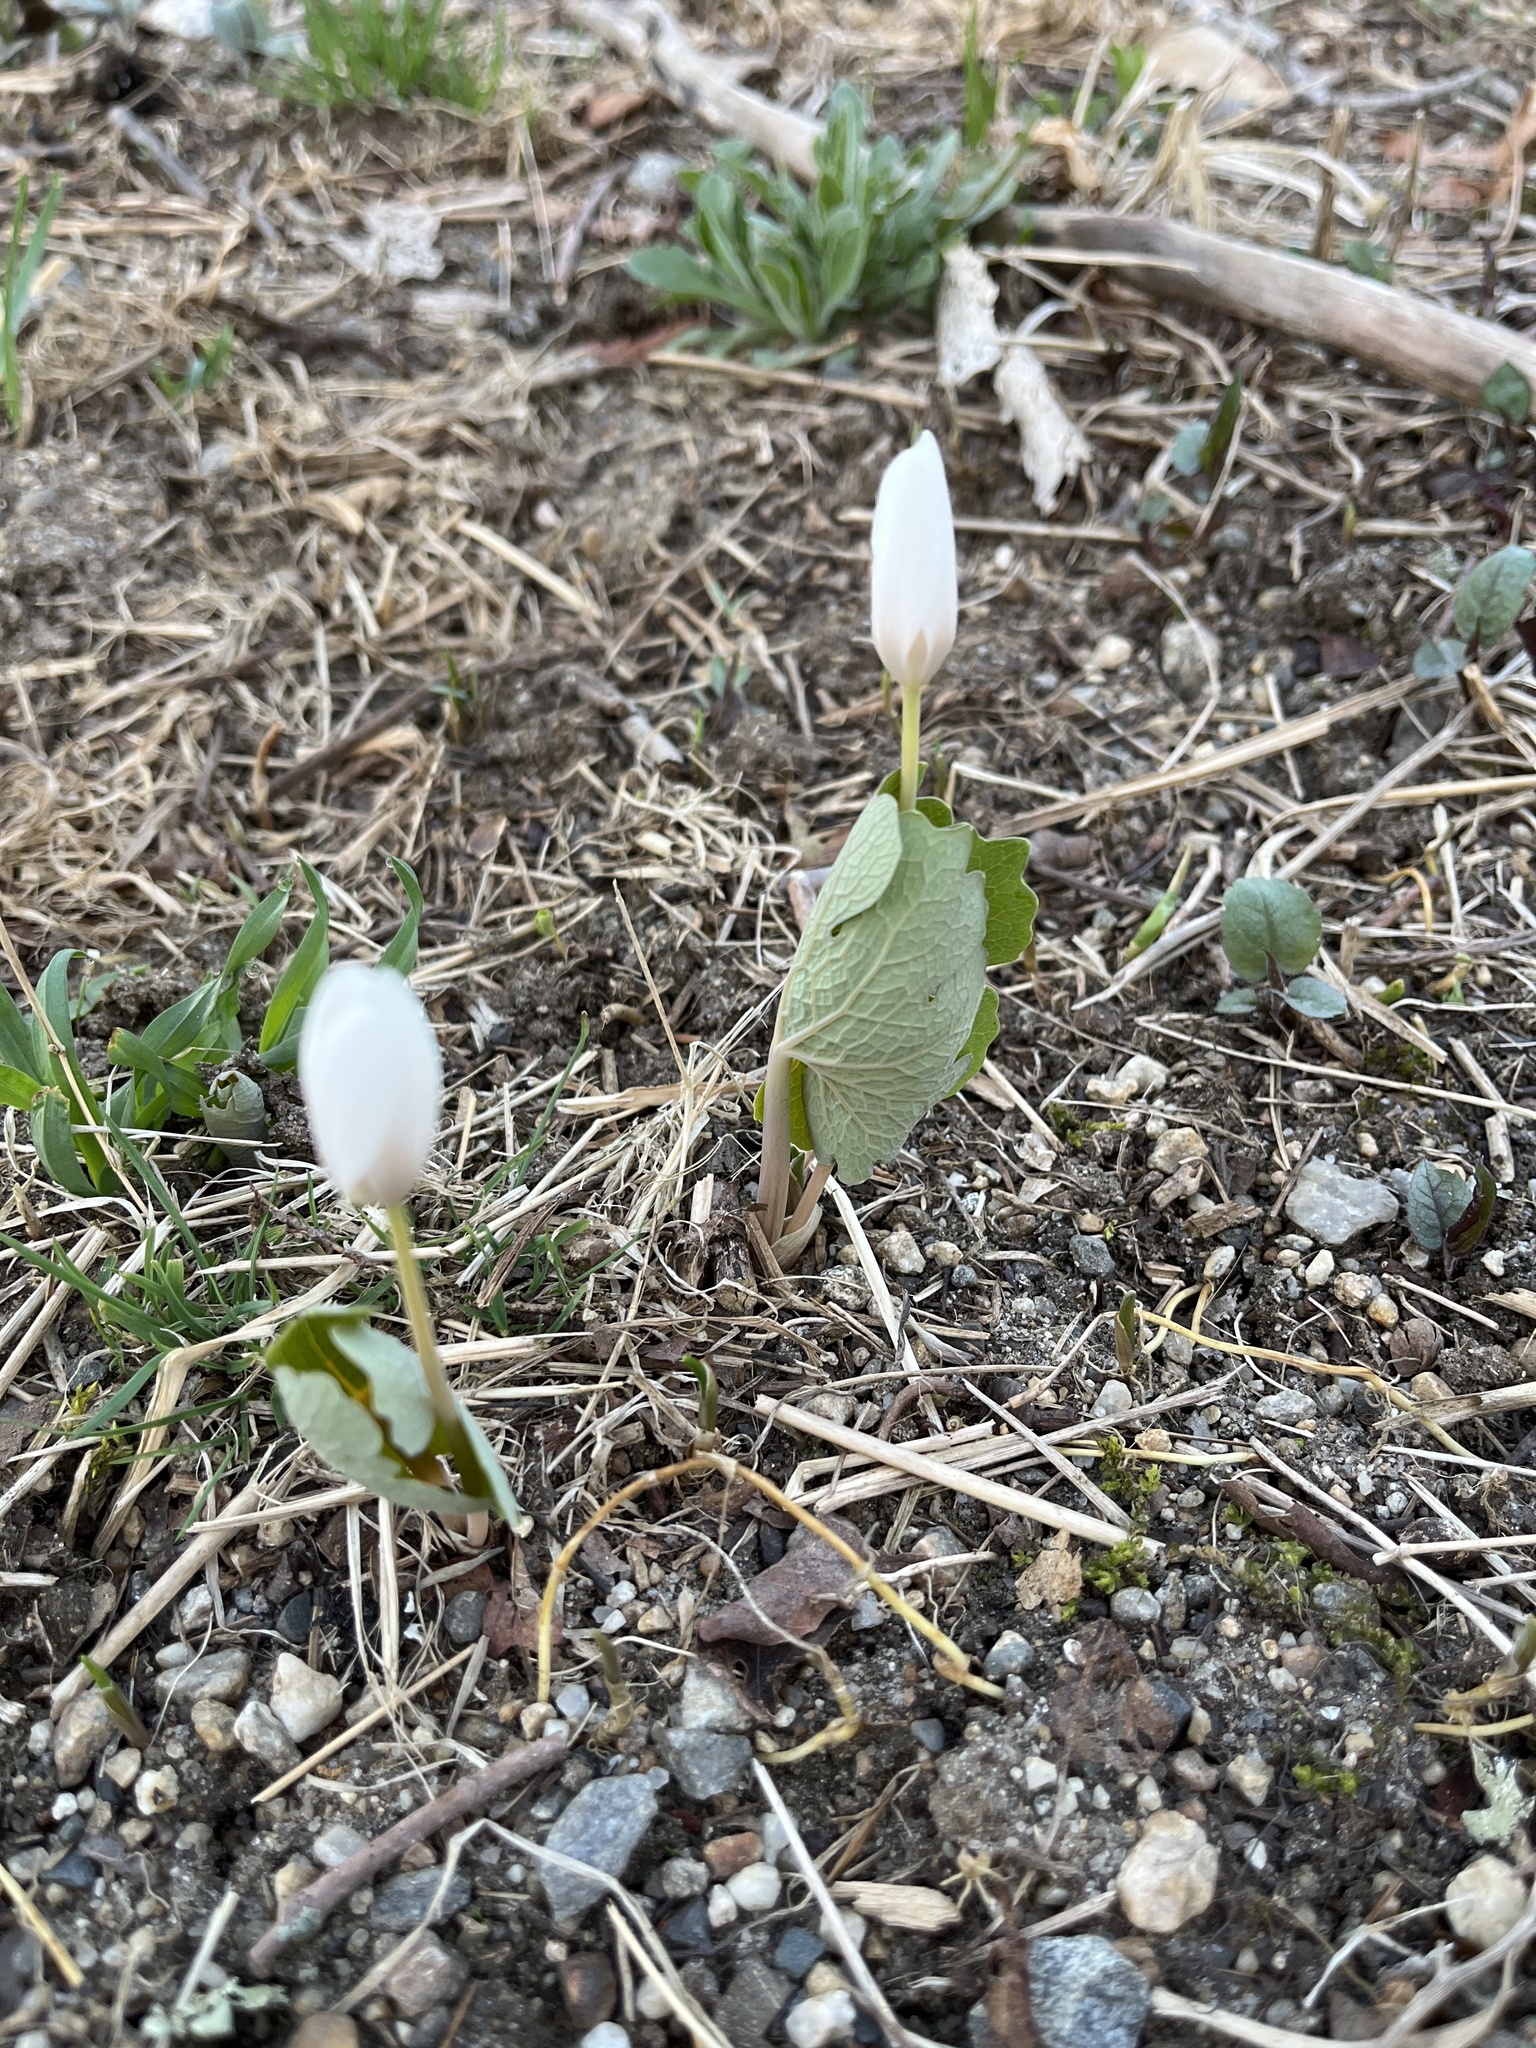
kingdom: Plantae
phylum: Tracheophyta
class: Magnoliopsida
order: Ranunculales
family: Papaveraceae
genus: Sanguinaria
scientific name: Sanguinaria canadensis
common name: Bloodroot
